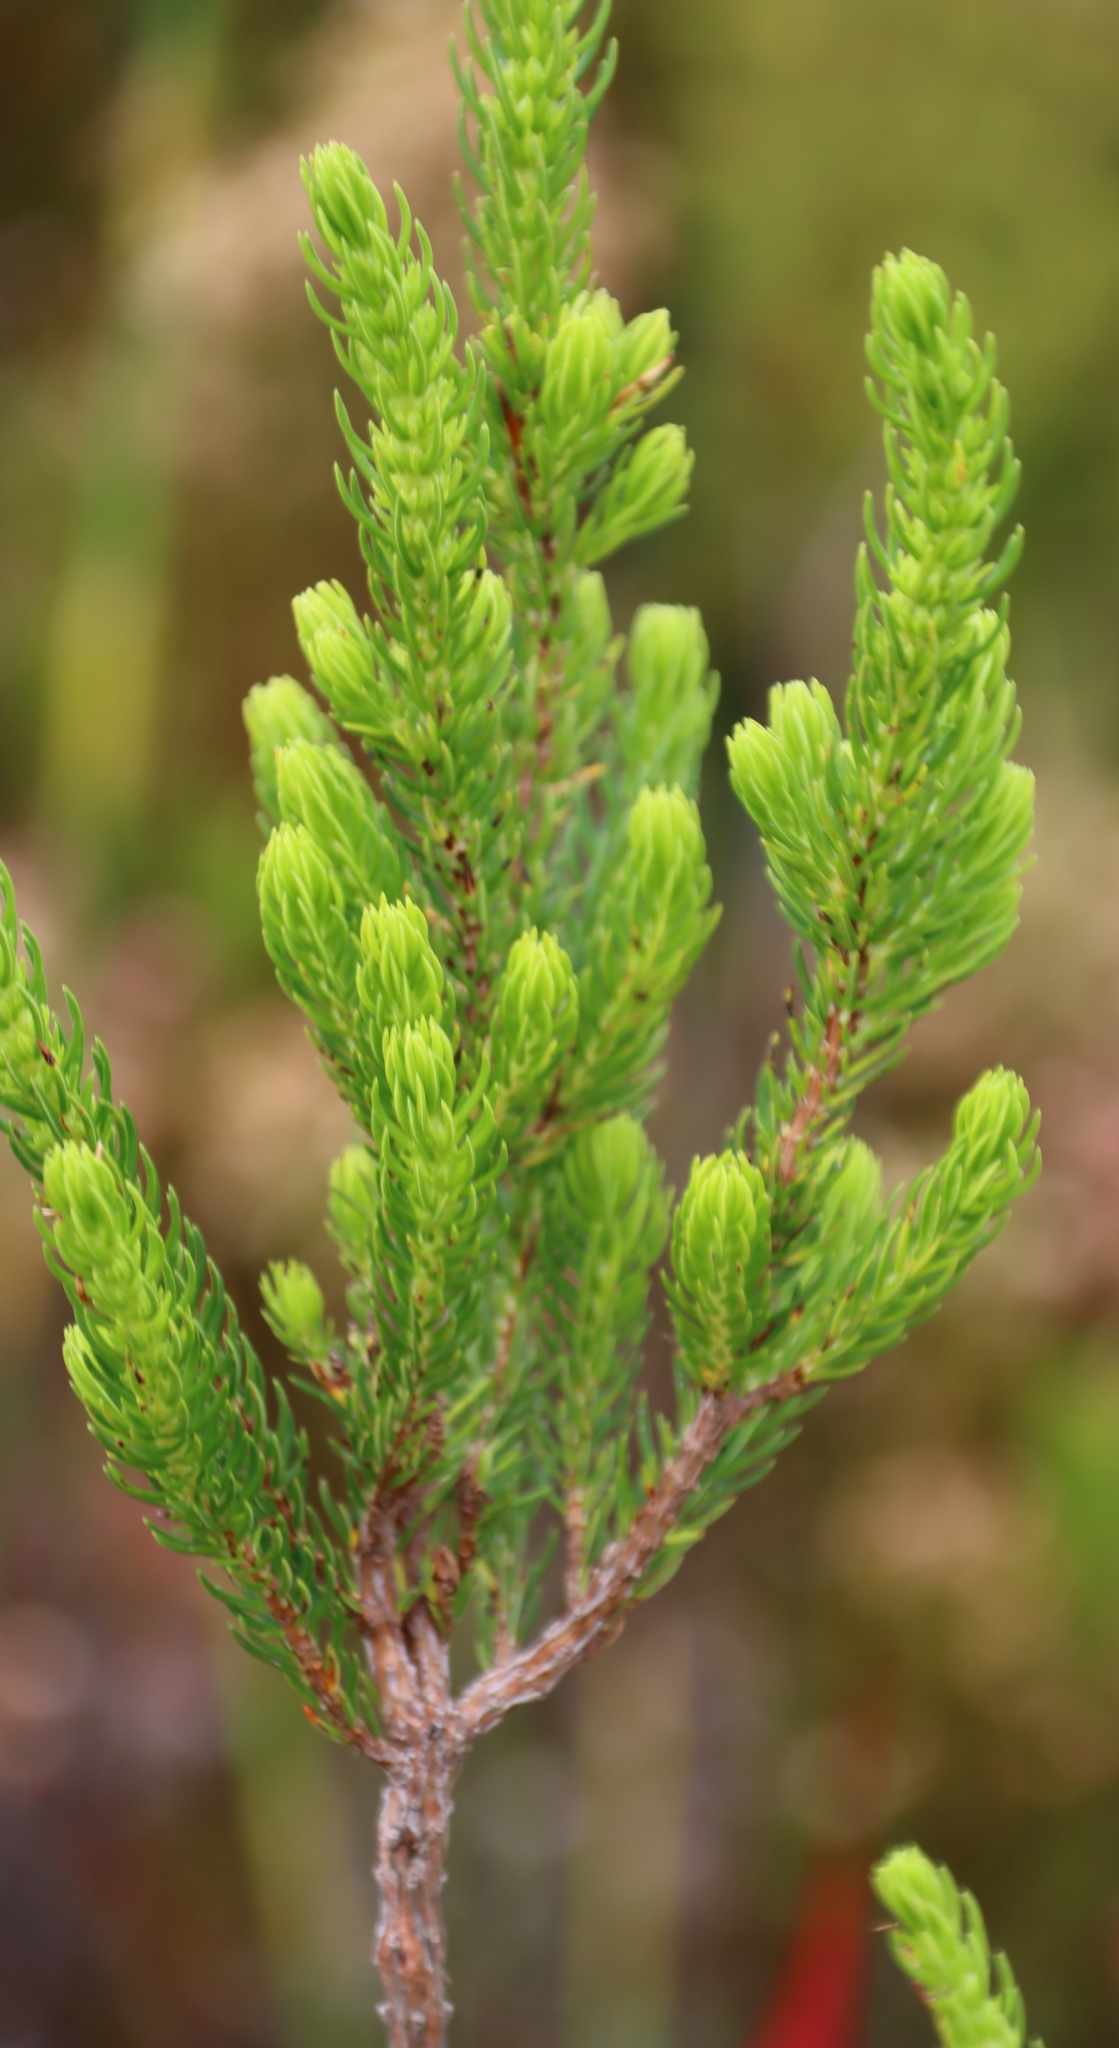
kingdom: Plantae
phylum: Tracheophyta
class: Magnoliopsida
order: Ericales
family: Ericaceae
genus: Erica
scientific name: Erica mammosa
